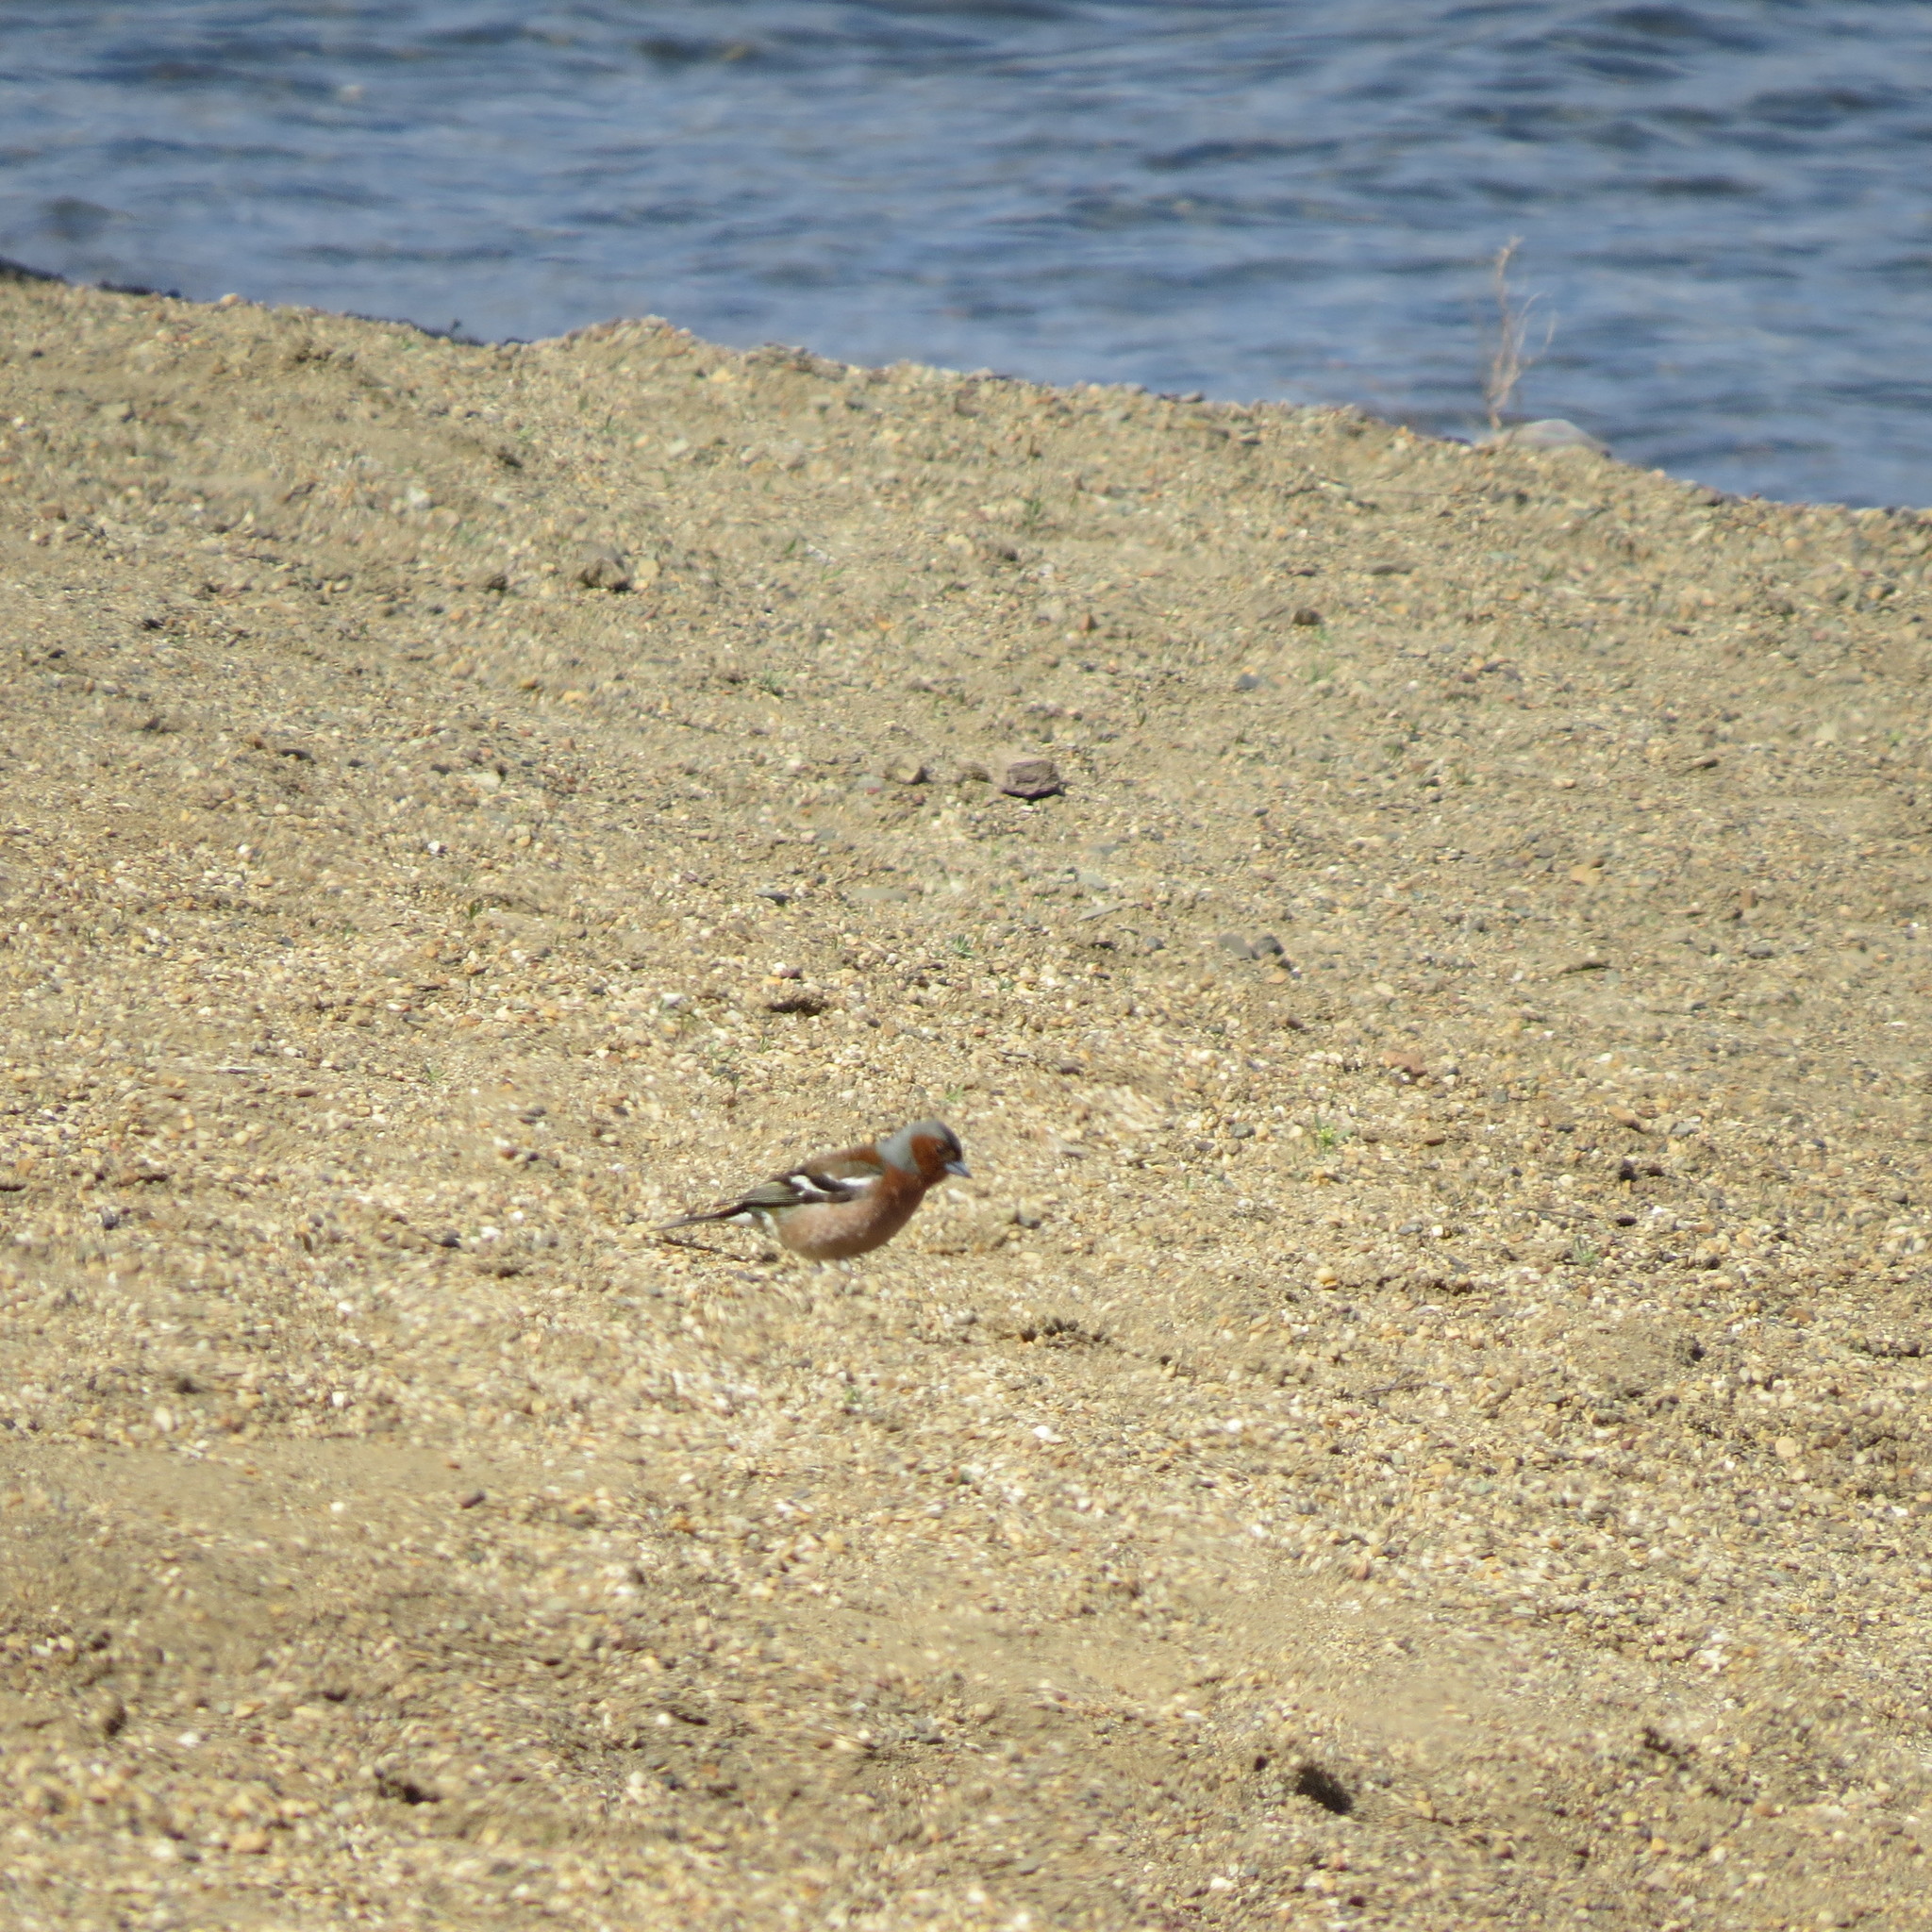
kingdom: Animalia
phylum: Chordata
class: Aves
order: Passeriformes
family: Fringillidae
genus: Fringilla
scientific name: Fringilla coelebs
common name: Common chaffinch
